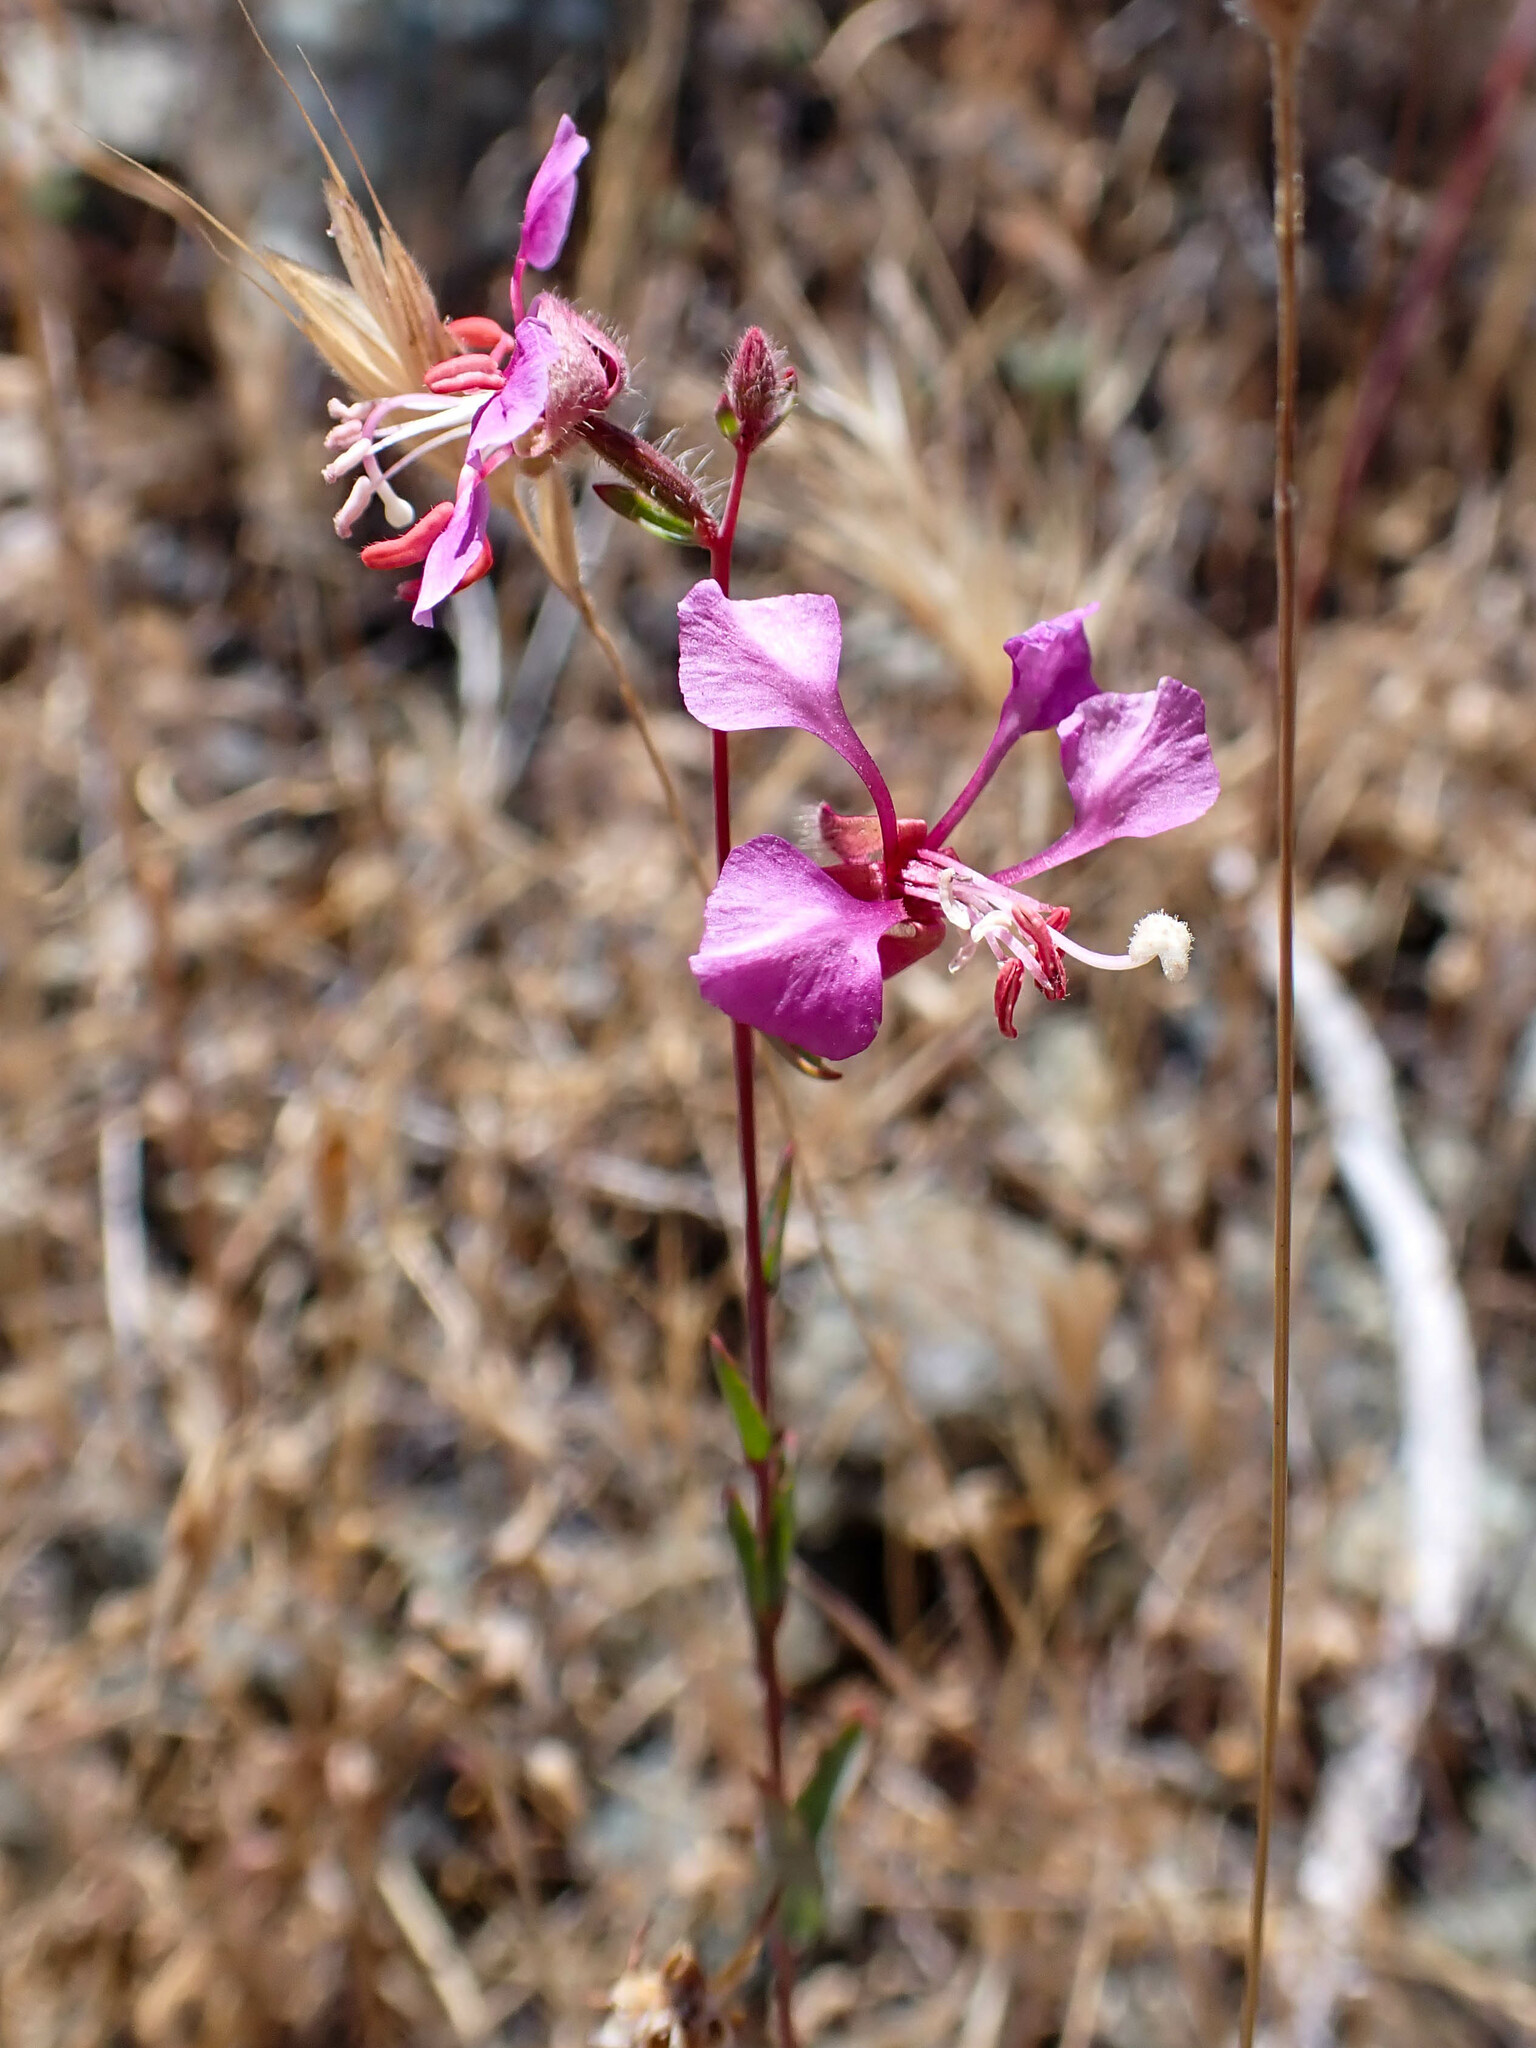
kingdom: Plantae
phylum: Tracheophyta
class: Magnoliopsida
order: Myrtales
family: Onagraceae
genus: Clarkia
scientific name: Clarkia unguiculata
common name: Clarkia
